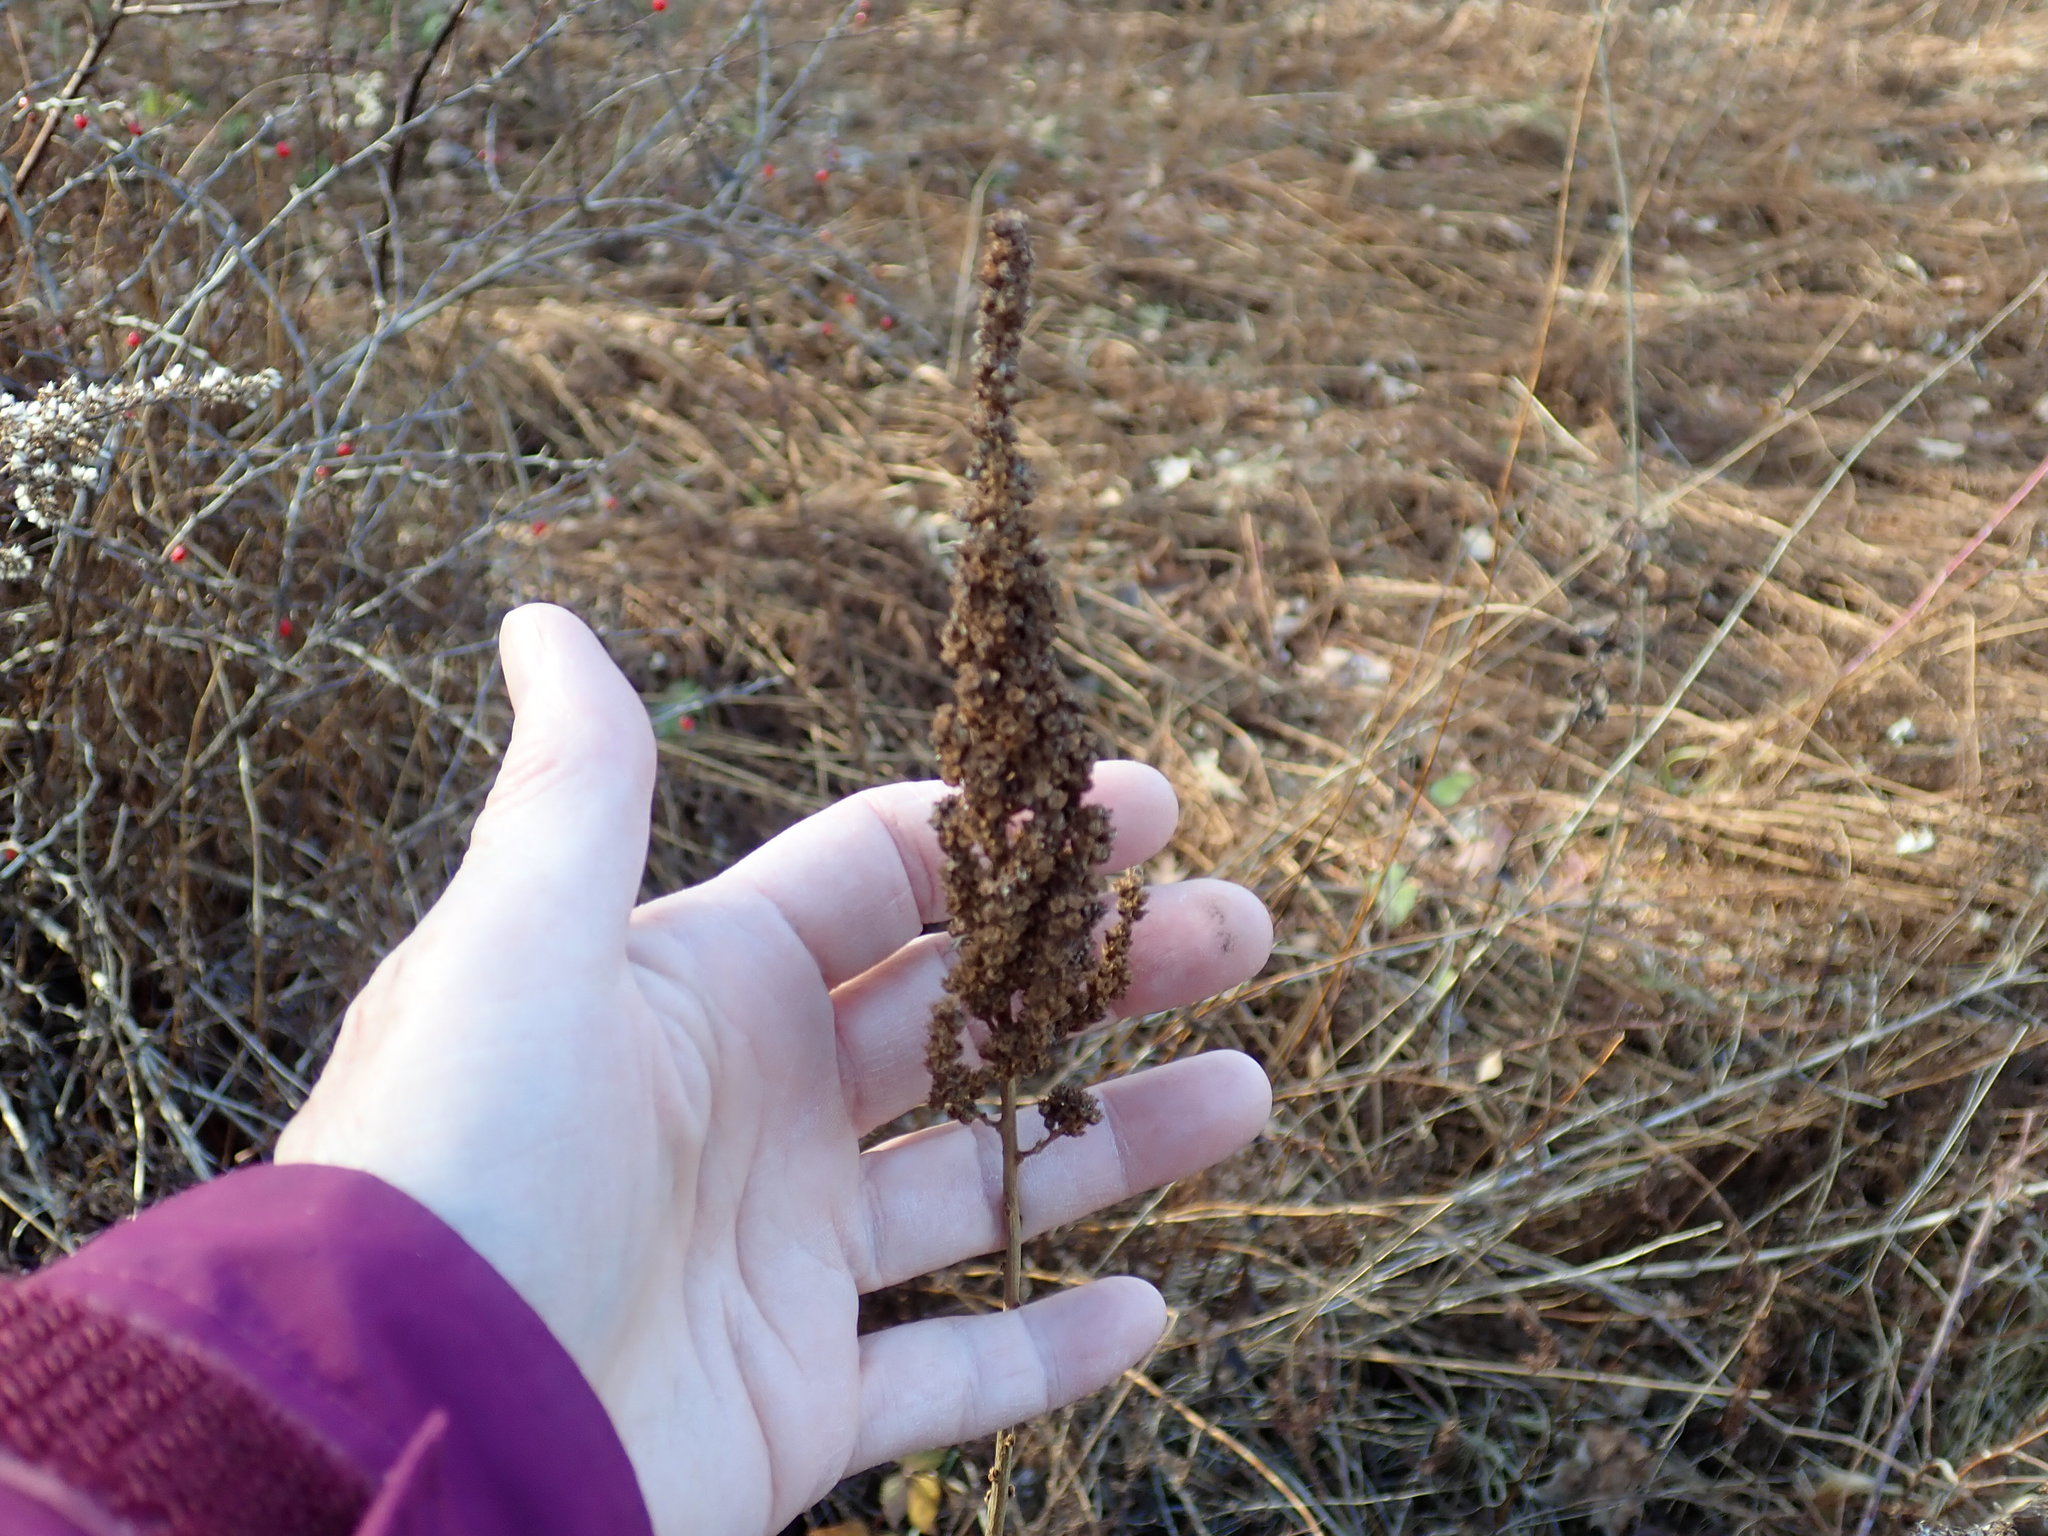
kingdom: Plantae
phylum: Tracheophyta
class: Magnoliopsida
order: Rosales
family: Rosaceae
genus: Spiraea
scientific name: Spiraea tomentosa
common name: Hardhack
